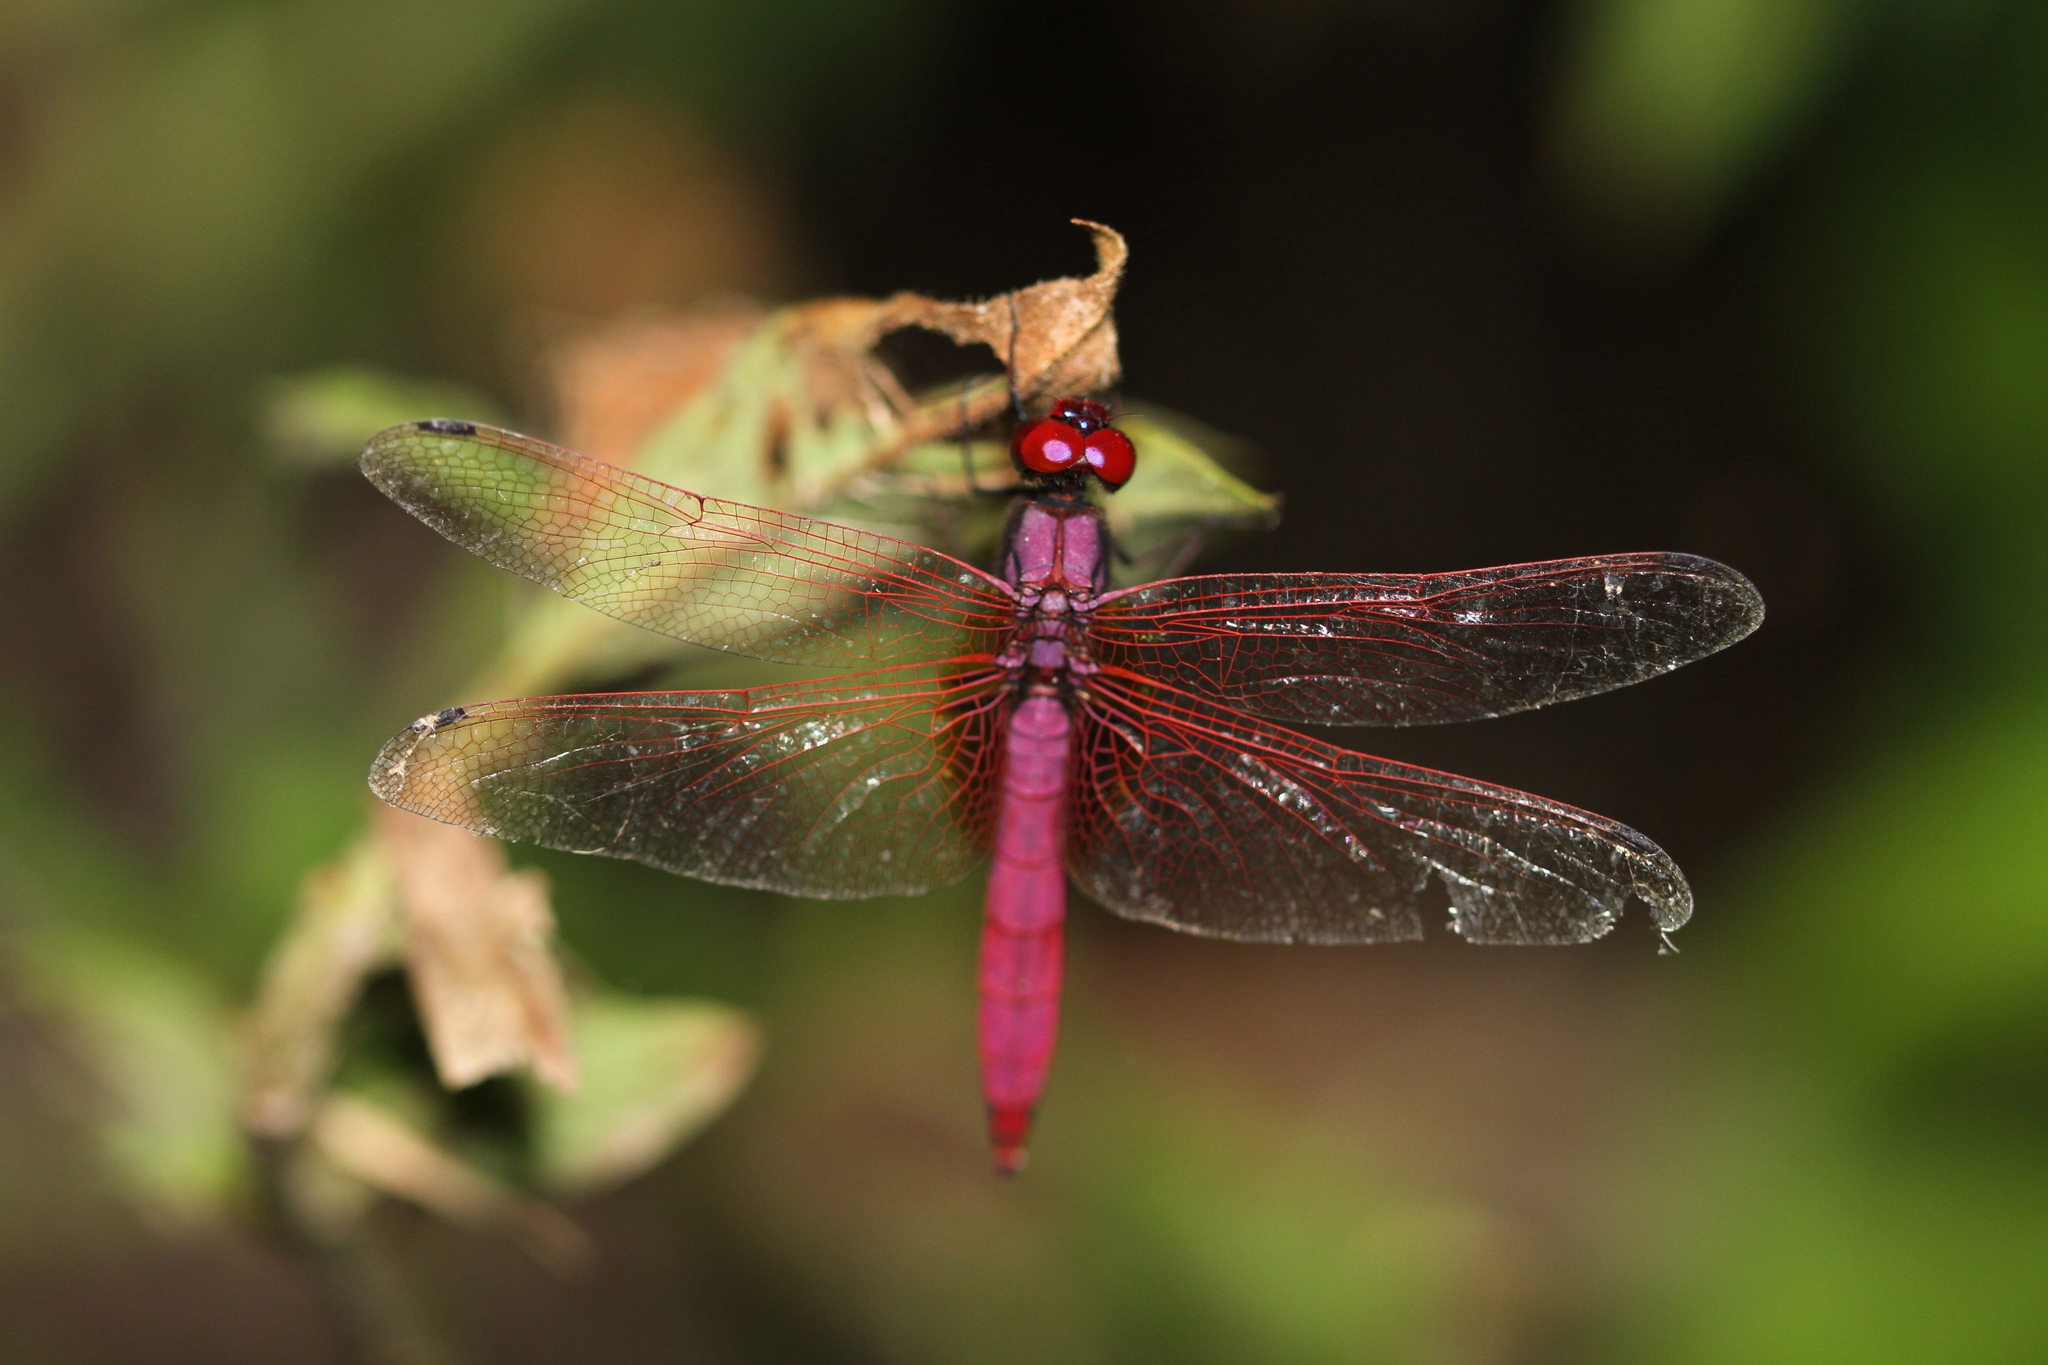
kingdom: Animalia
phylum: Arthropoda
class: Insecta
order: Odonata
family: Libellulidae
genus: Trithemis
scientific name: Trithemis aurora
